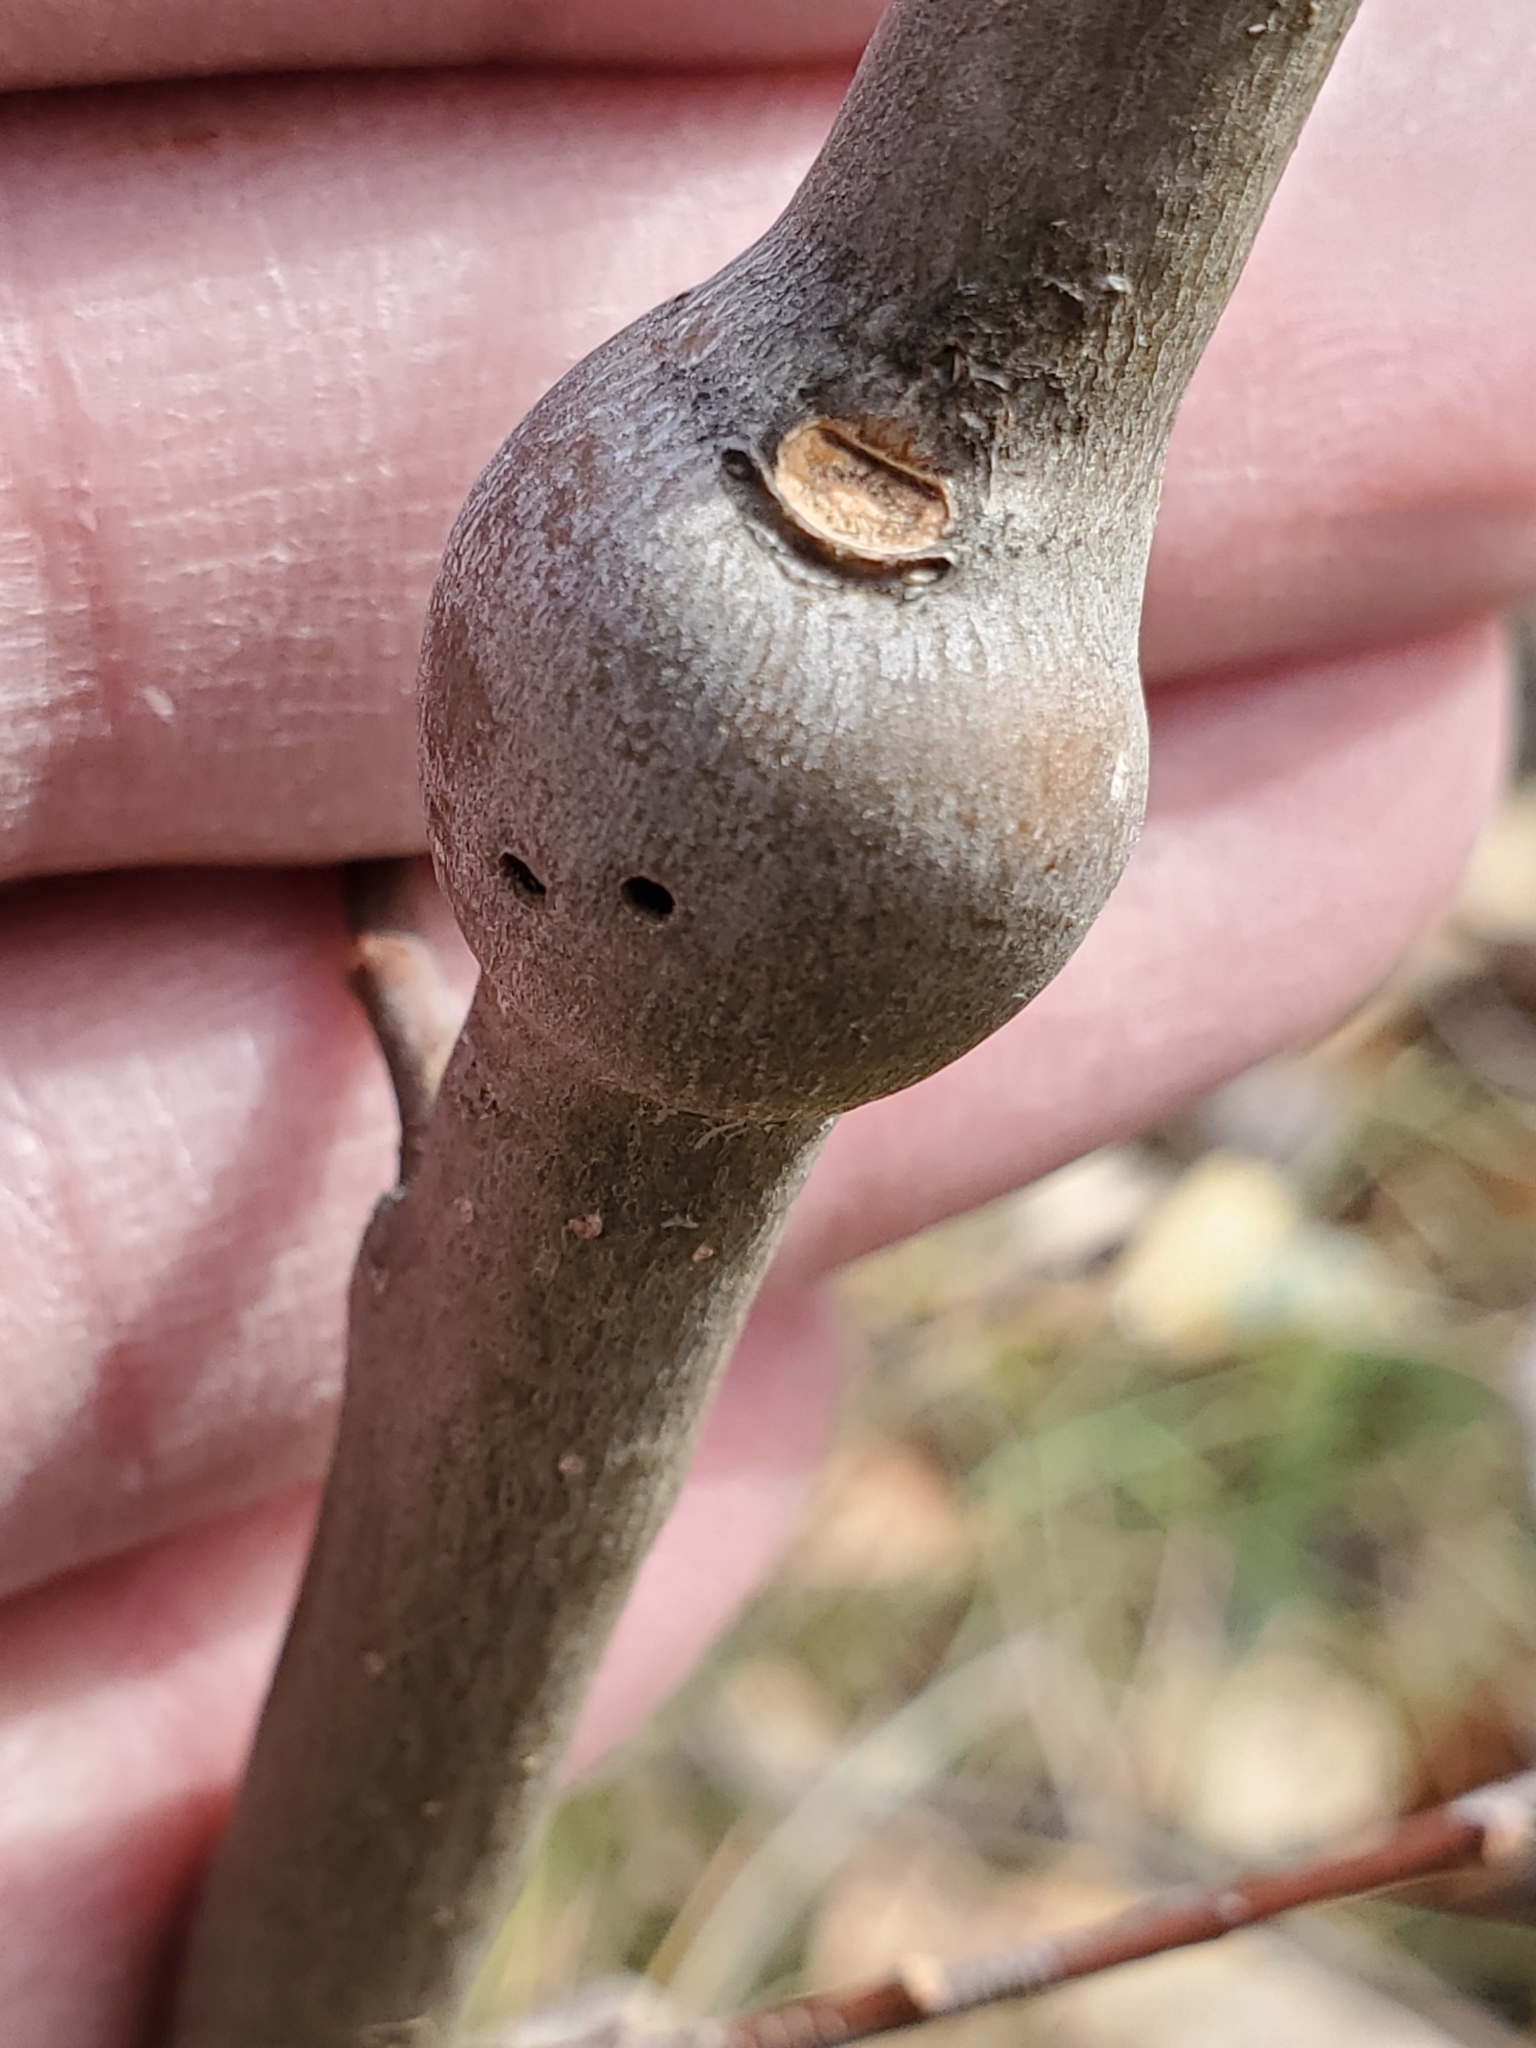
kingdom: Animalia
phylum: Arthropoda
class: Insecta
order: Diptera
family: Agromyzidae
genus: Euhexomyza
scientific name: Euhexomyza schineri
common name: Poplar twiggall fly
